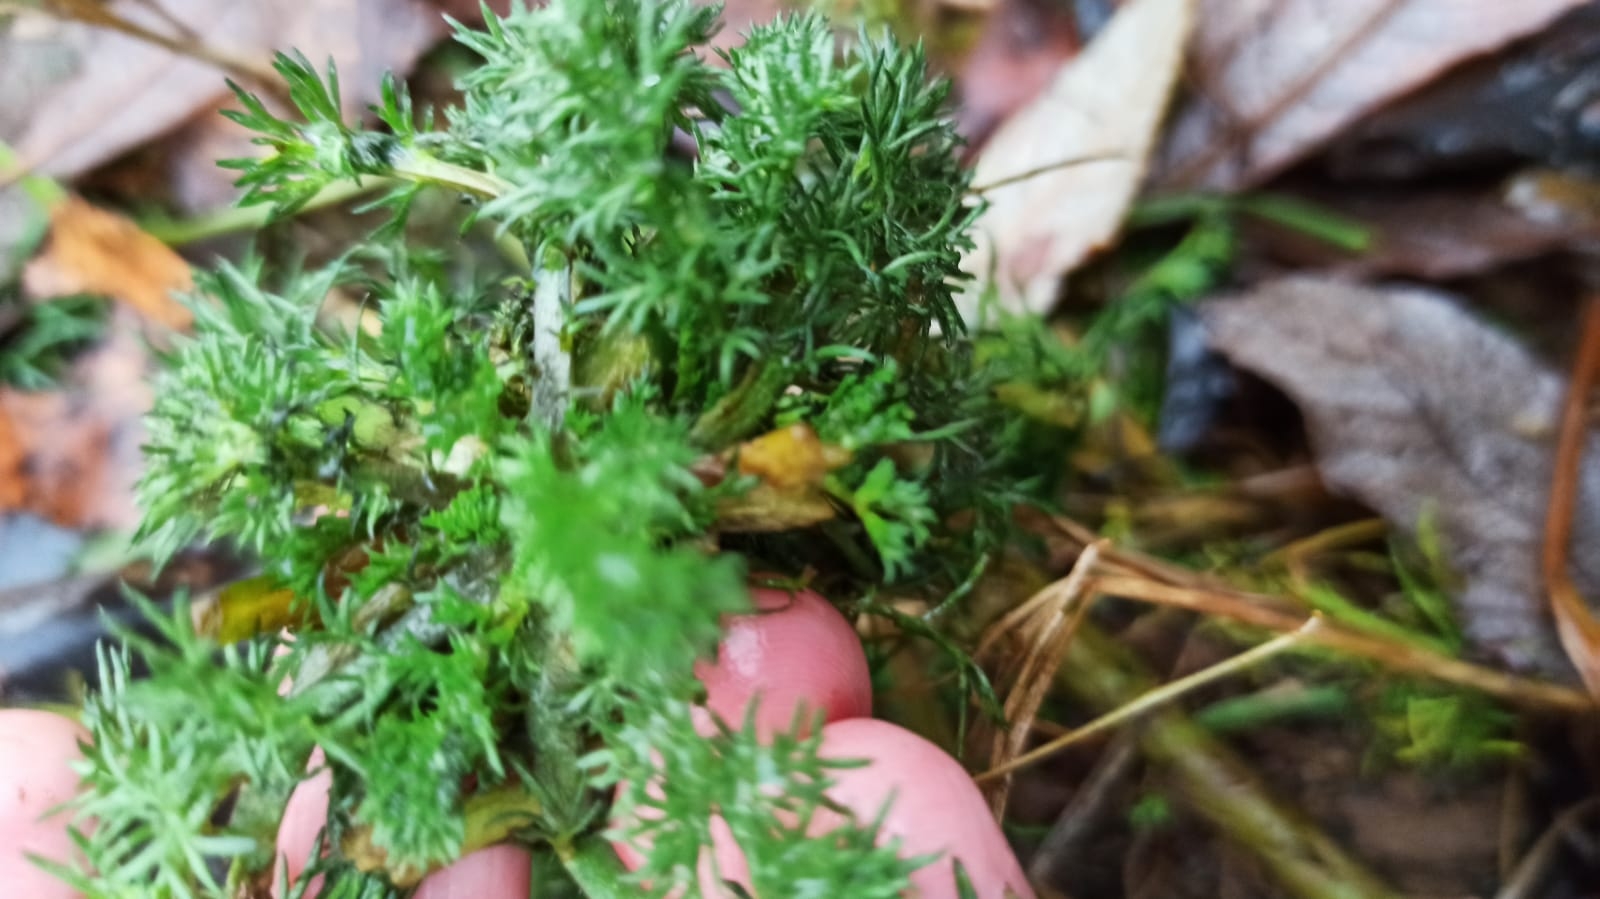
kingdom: Plantae
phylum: Tracheophyta
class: Magnoliopsida
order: Asterales
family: Asteraceae
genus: Tripleurospermum
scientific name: Tripleurospermum inodorum
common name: Scentless mayweed
